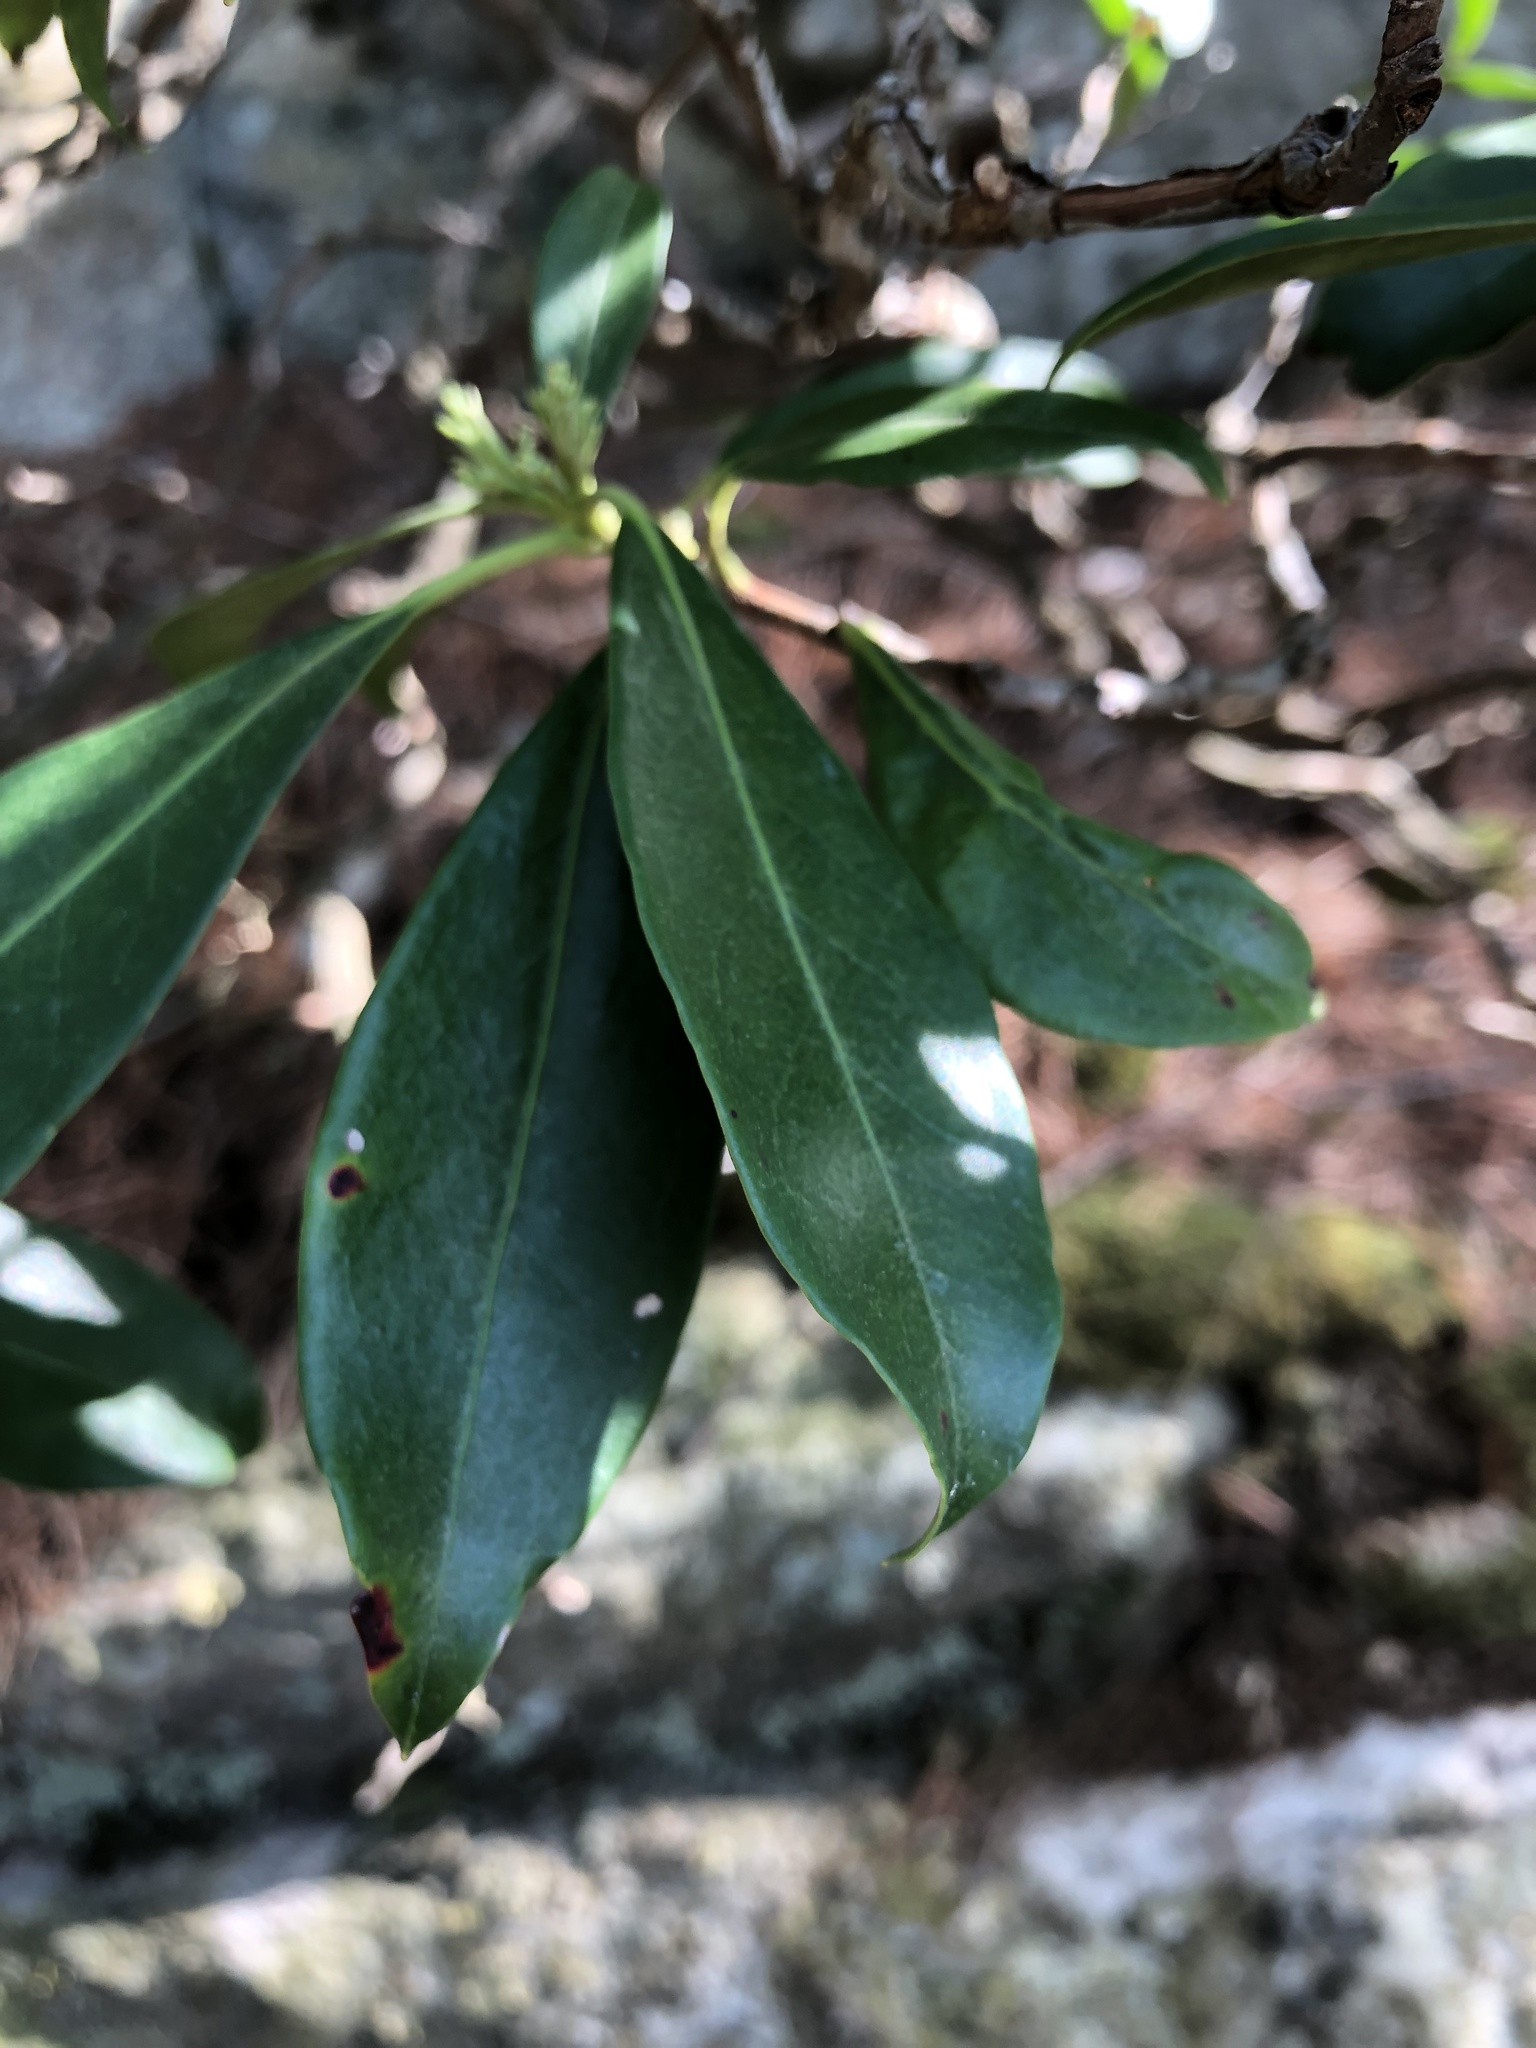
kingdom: Plantae
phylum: Tracheophyta
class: Magnoliopsida
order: Ericales
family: Ericaceae
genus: Kalmia
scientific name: Kalmia latifolia
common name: Mountain-laurel
